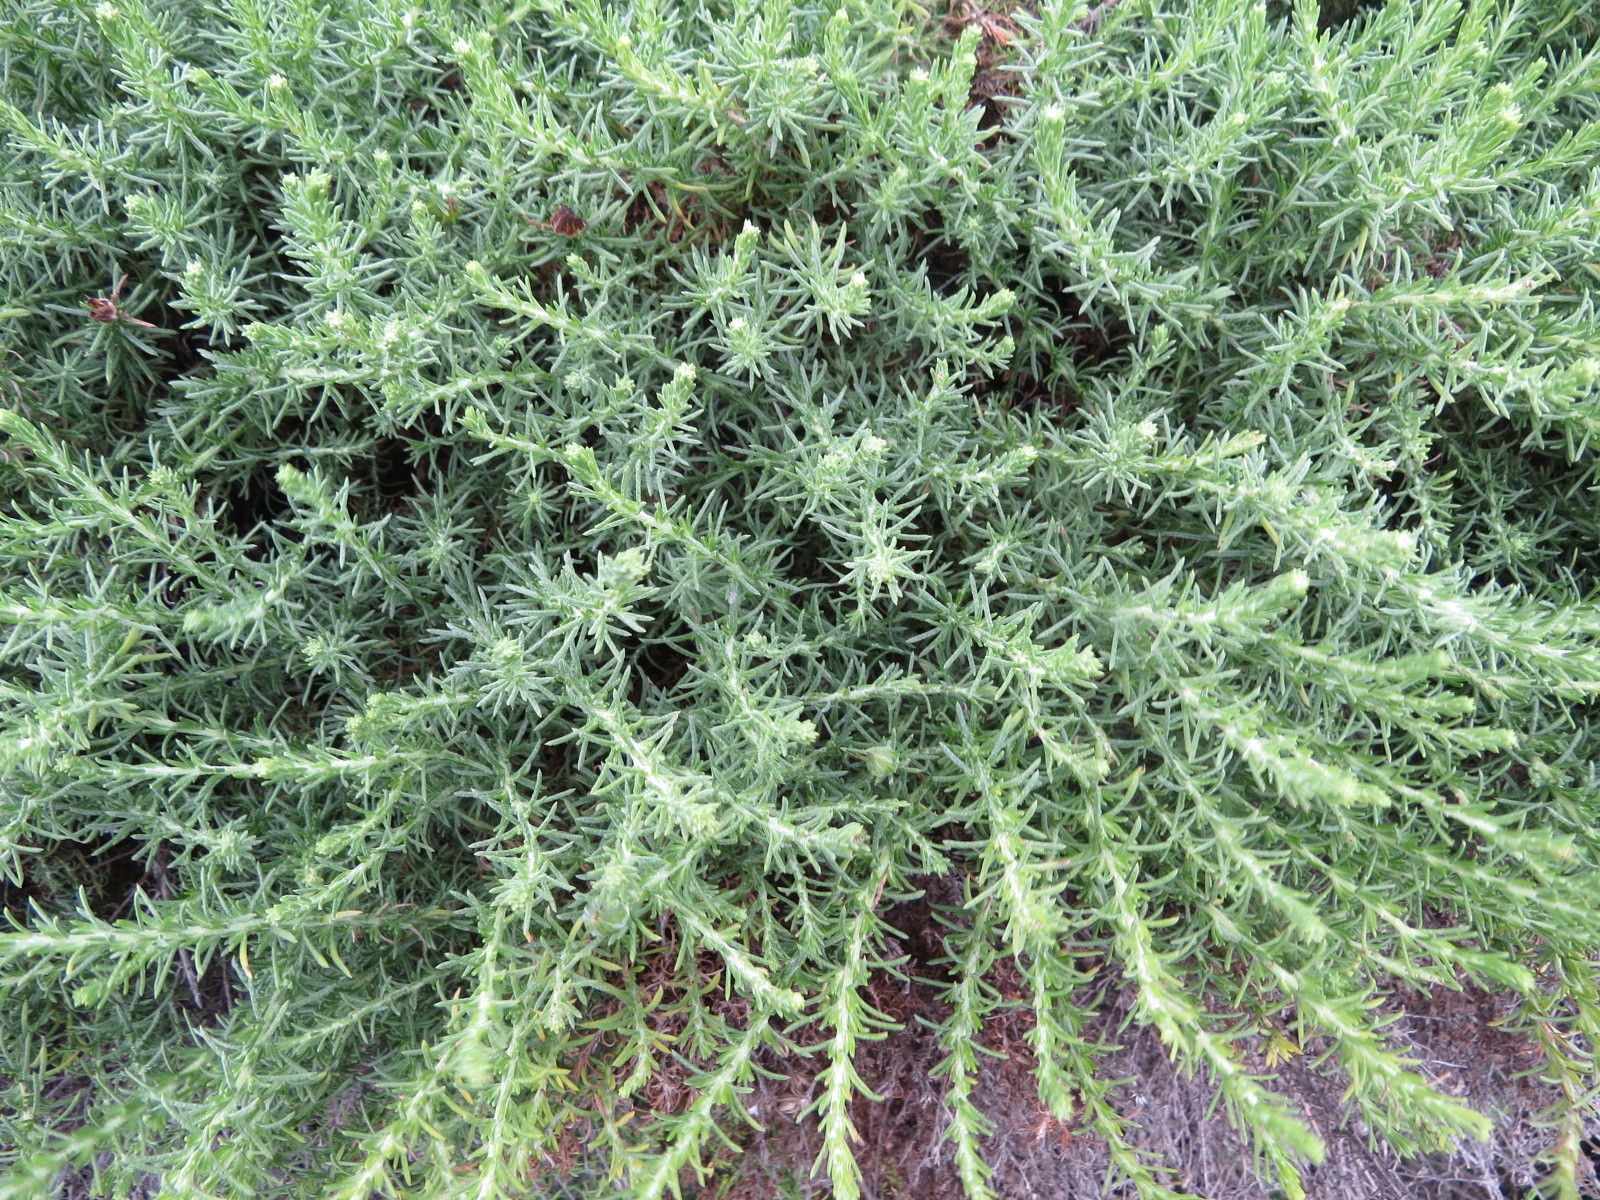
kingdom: Plantae
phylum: Tracheophyta
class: Magnoliopsida
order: Asterales
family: Asteraceae
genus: Ericameria
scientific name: Ericameria ericoides
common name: California goldenbush
